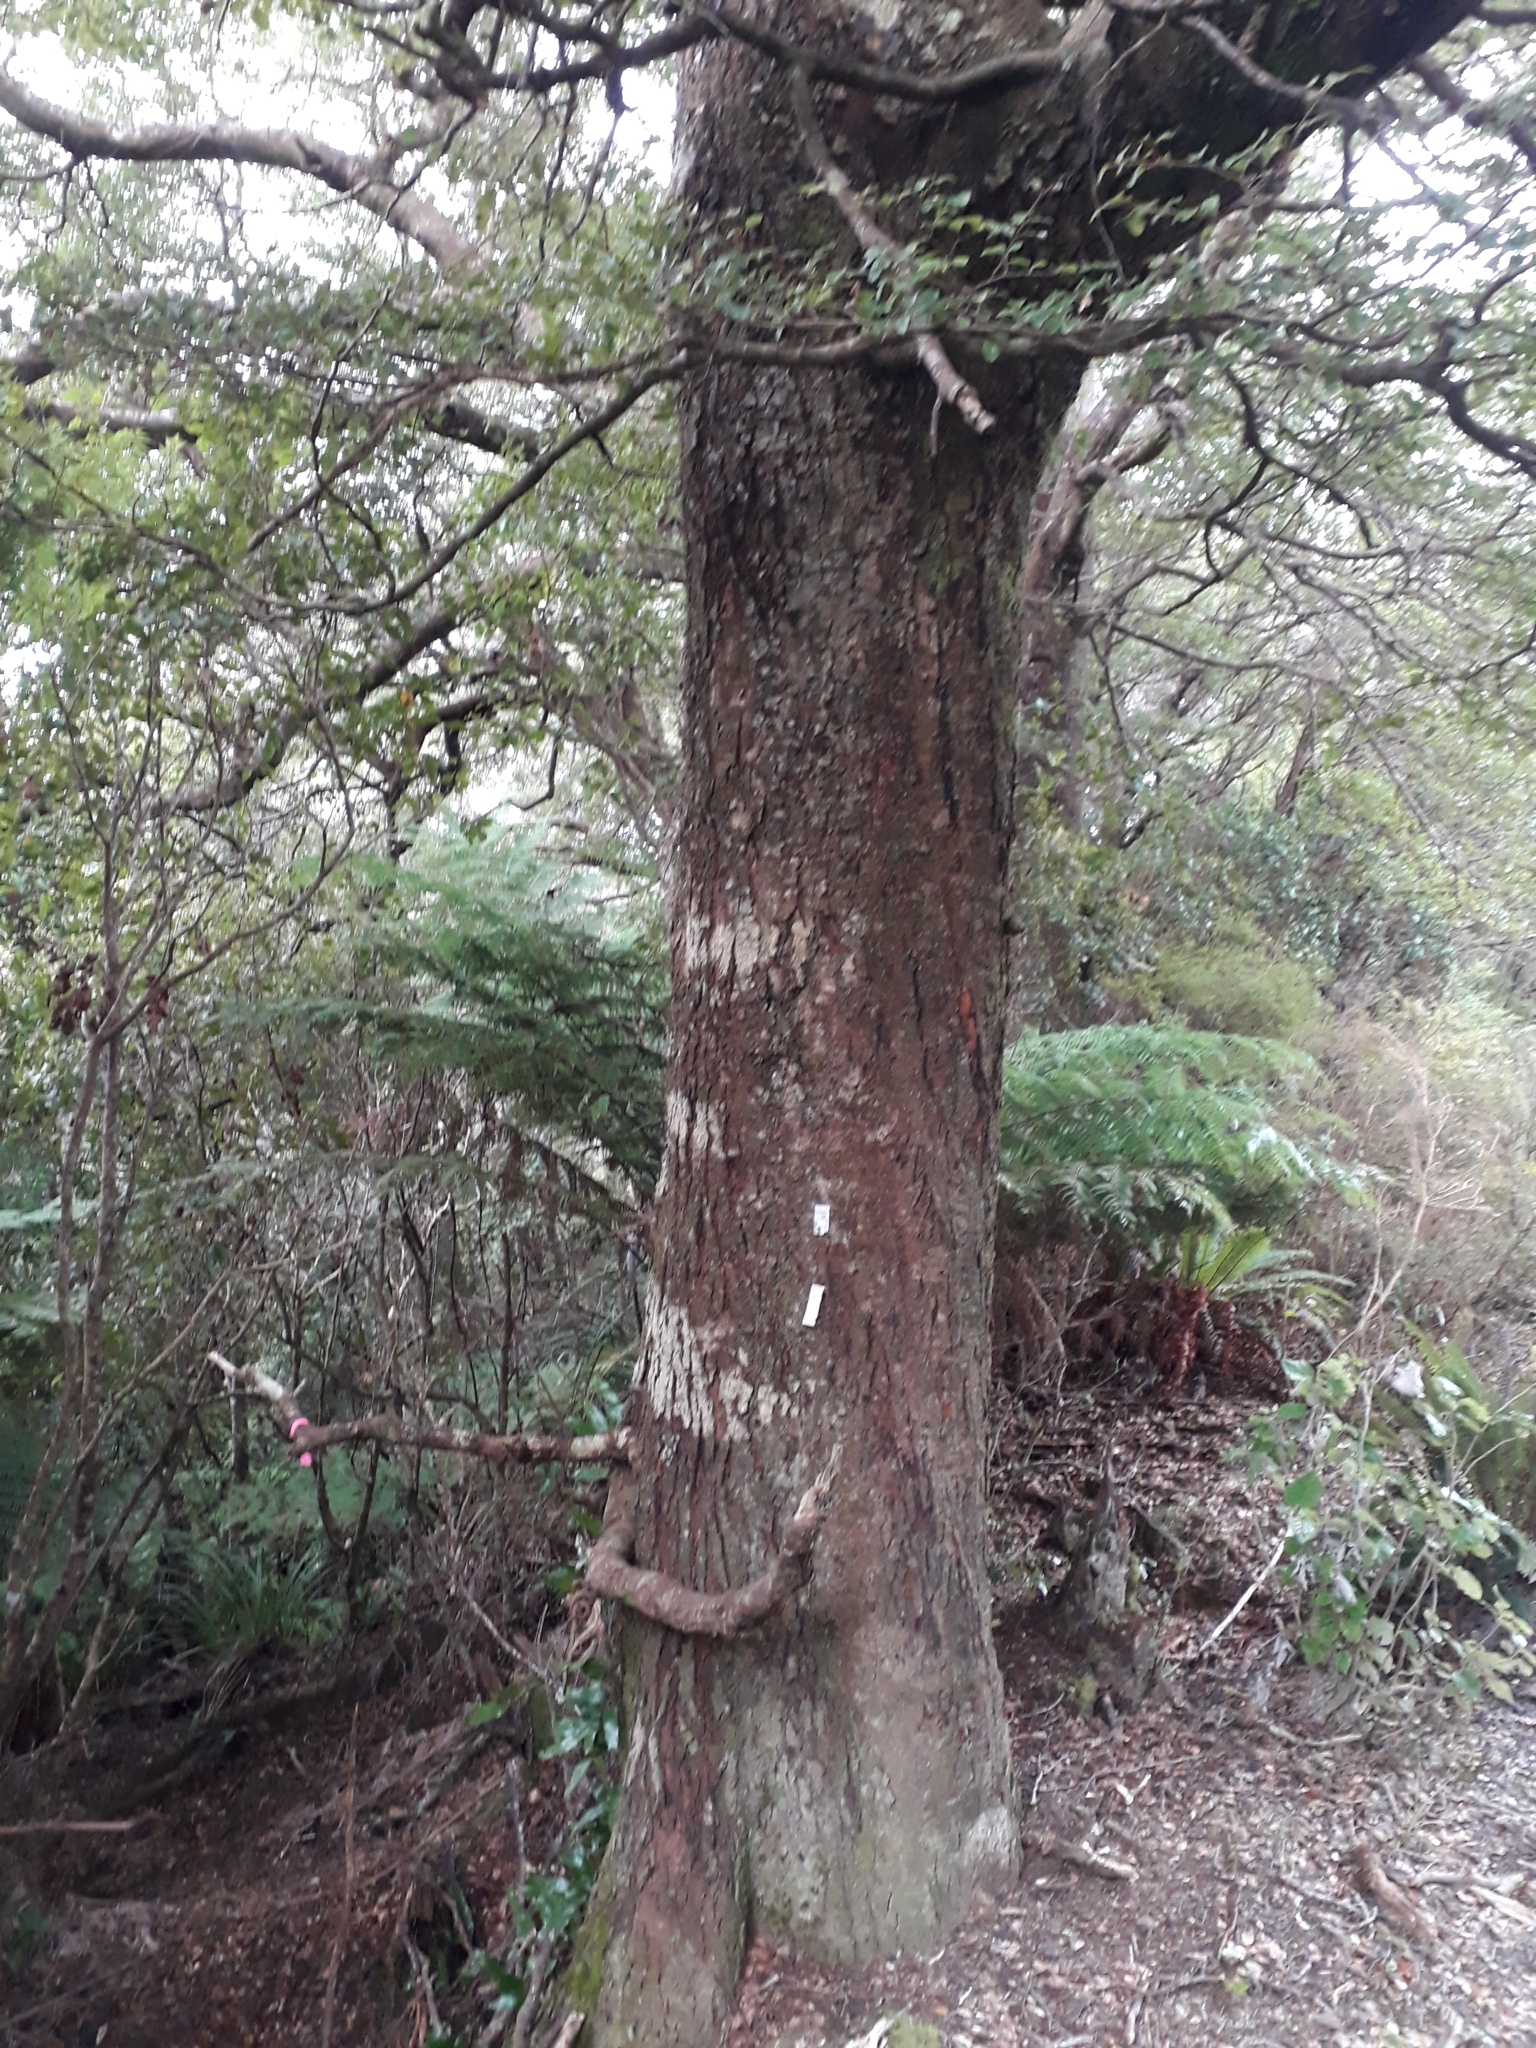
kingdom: Plantae
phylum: Tracheophyta
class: Magnoliopsida
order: Fagales
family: Nothofagaceae
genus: Nothofagus
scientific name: Nothofagus truncata
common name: Hard beech
